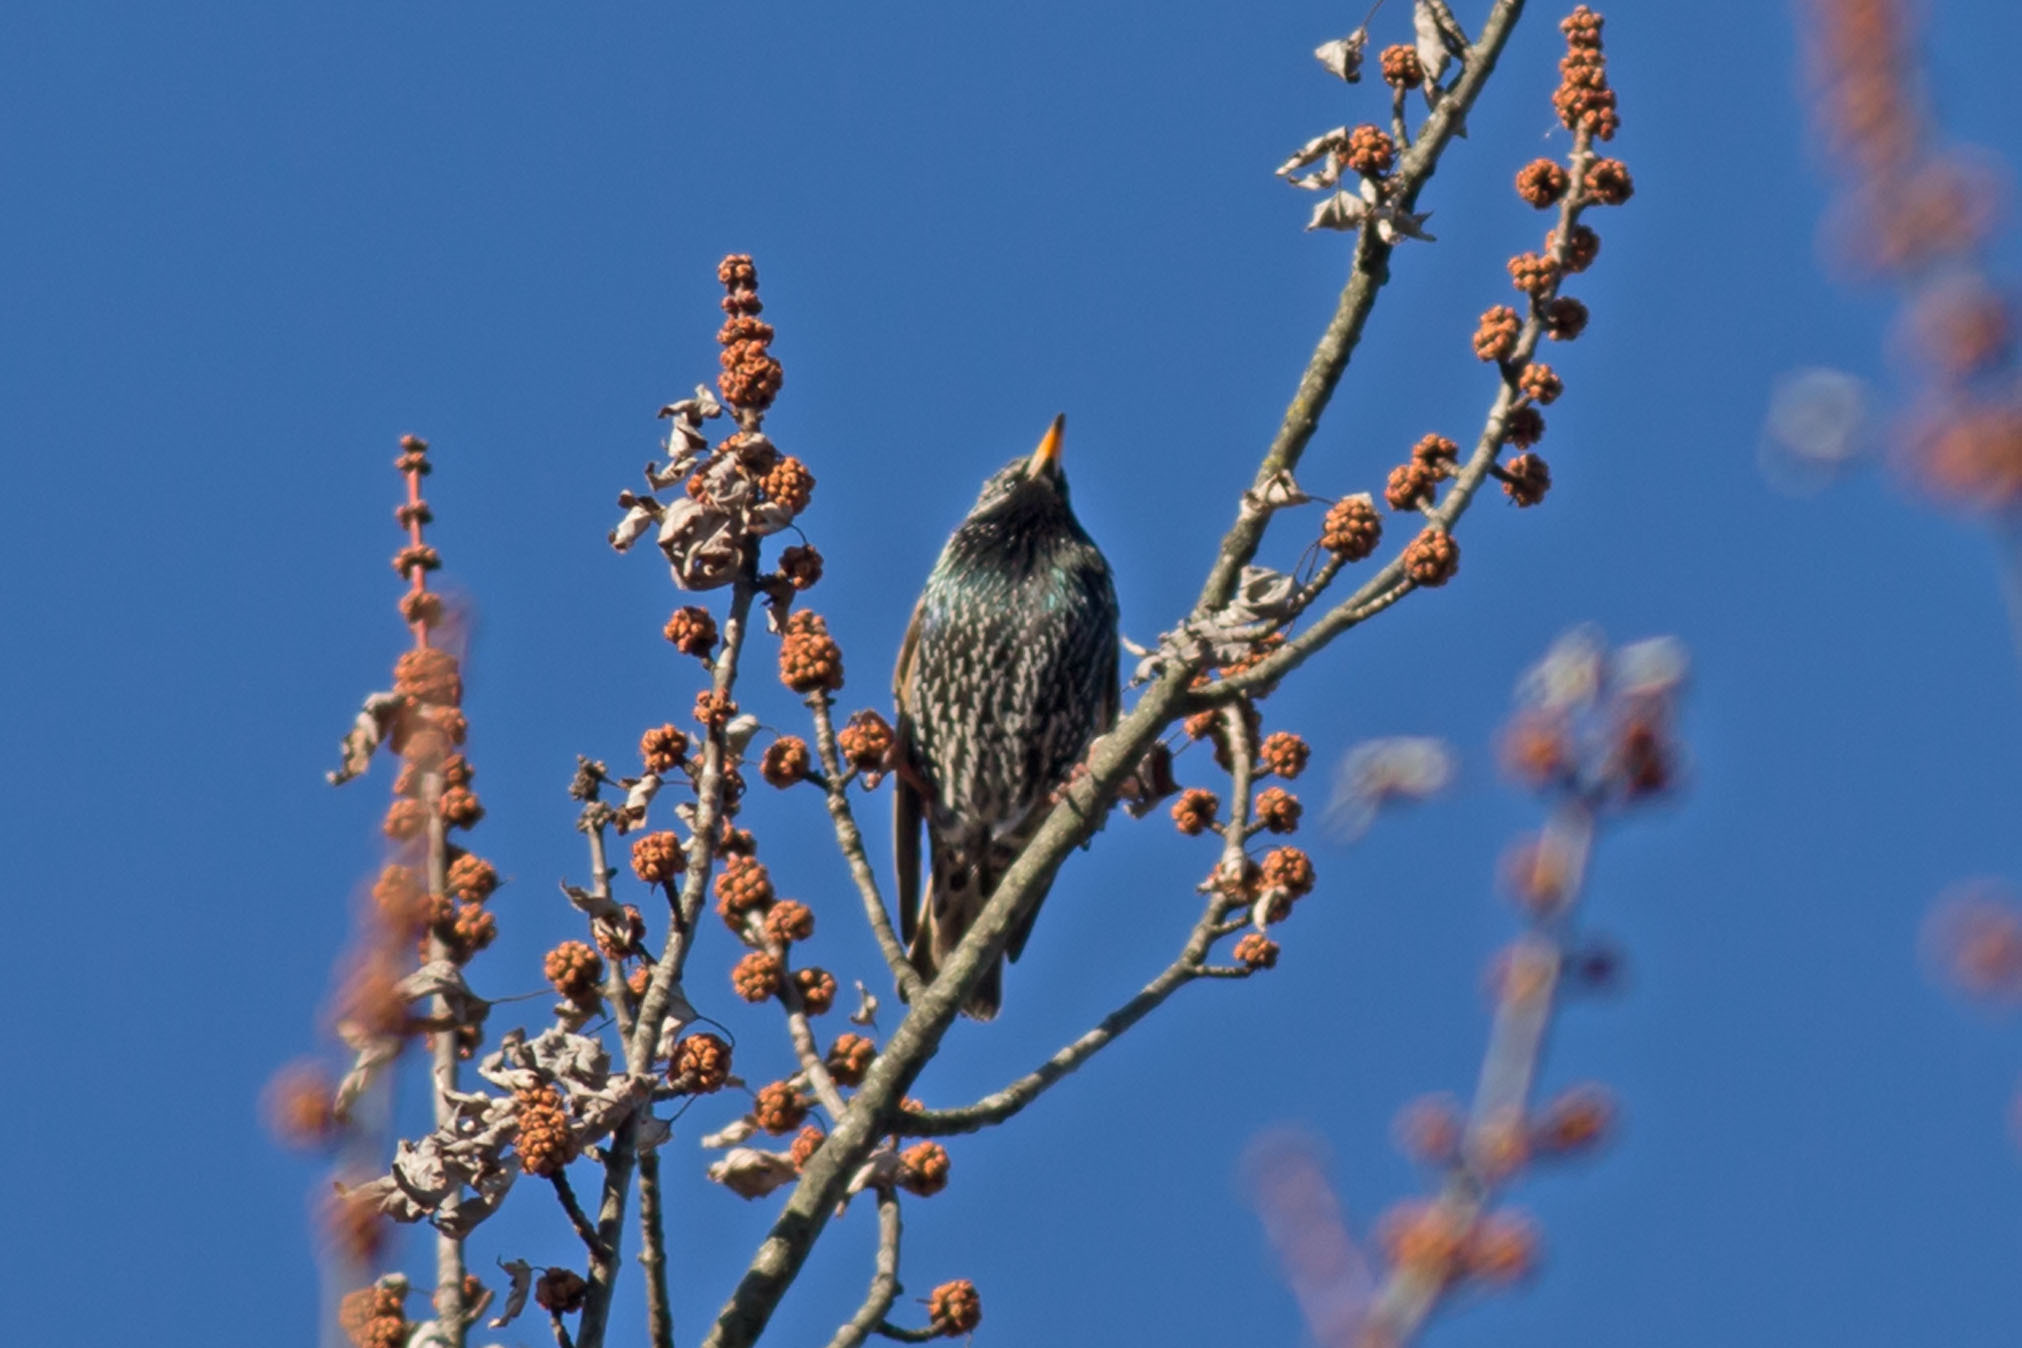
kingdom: Animalia
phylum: Chordata
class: Aves
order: Passeriformes
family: Sturnidae
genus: Sturnus
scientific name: Sturnus vulgaris
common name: Common starling
